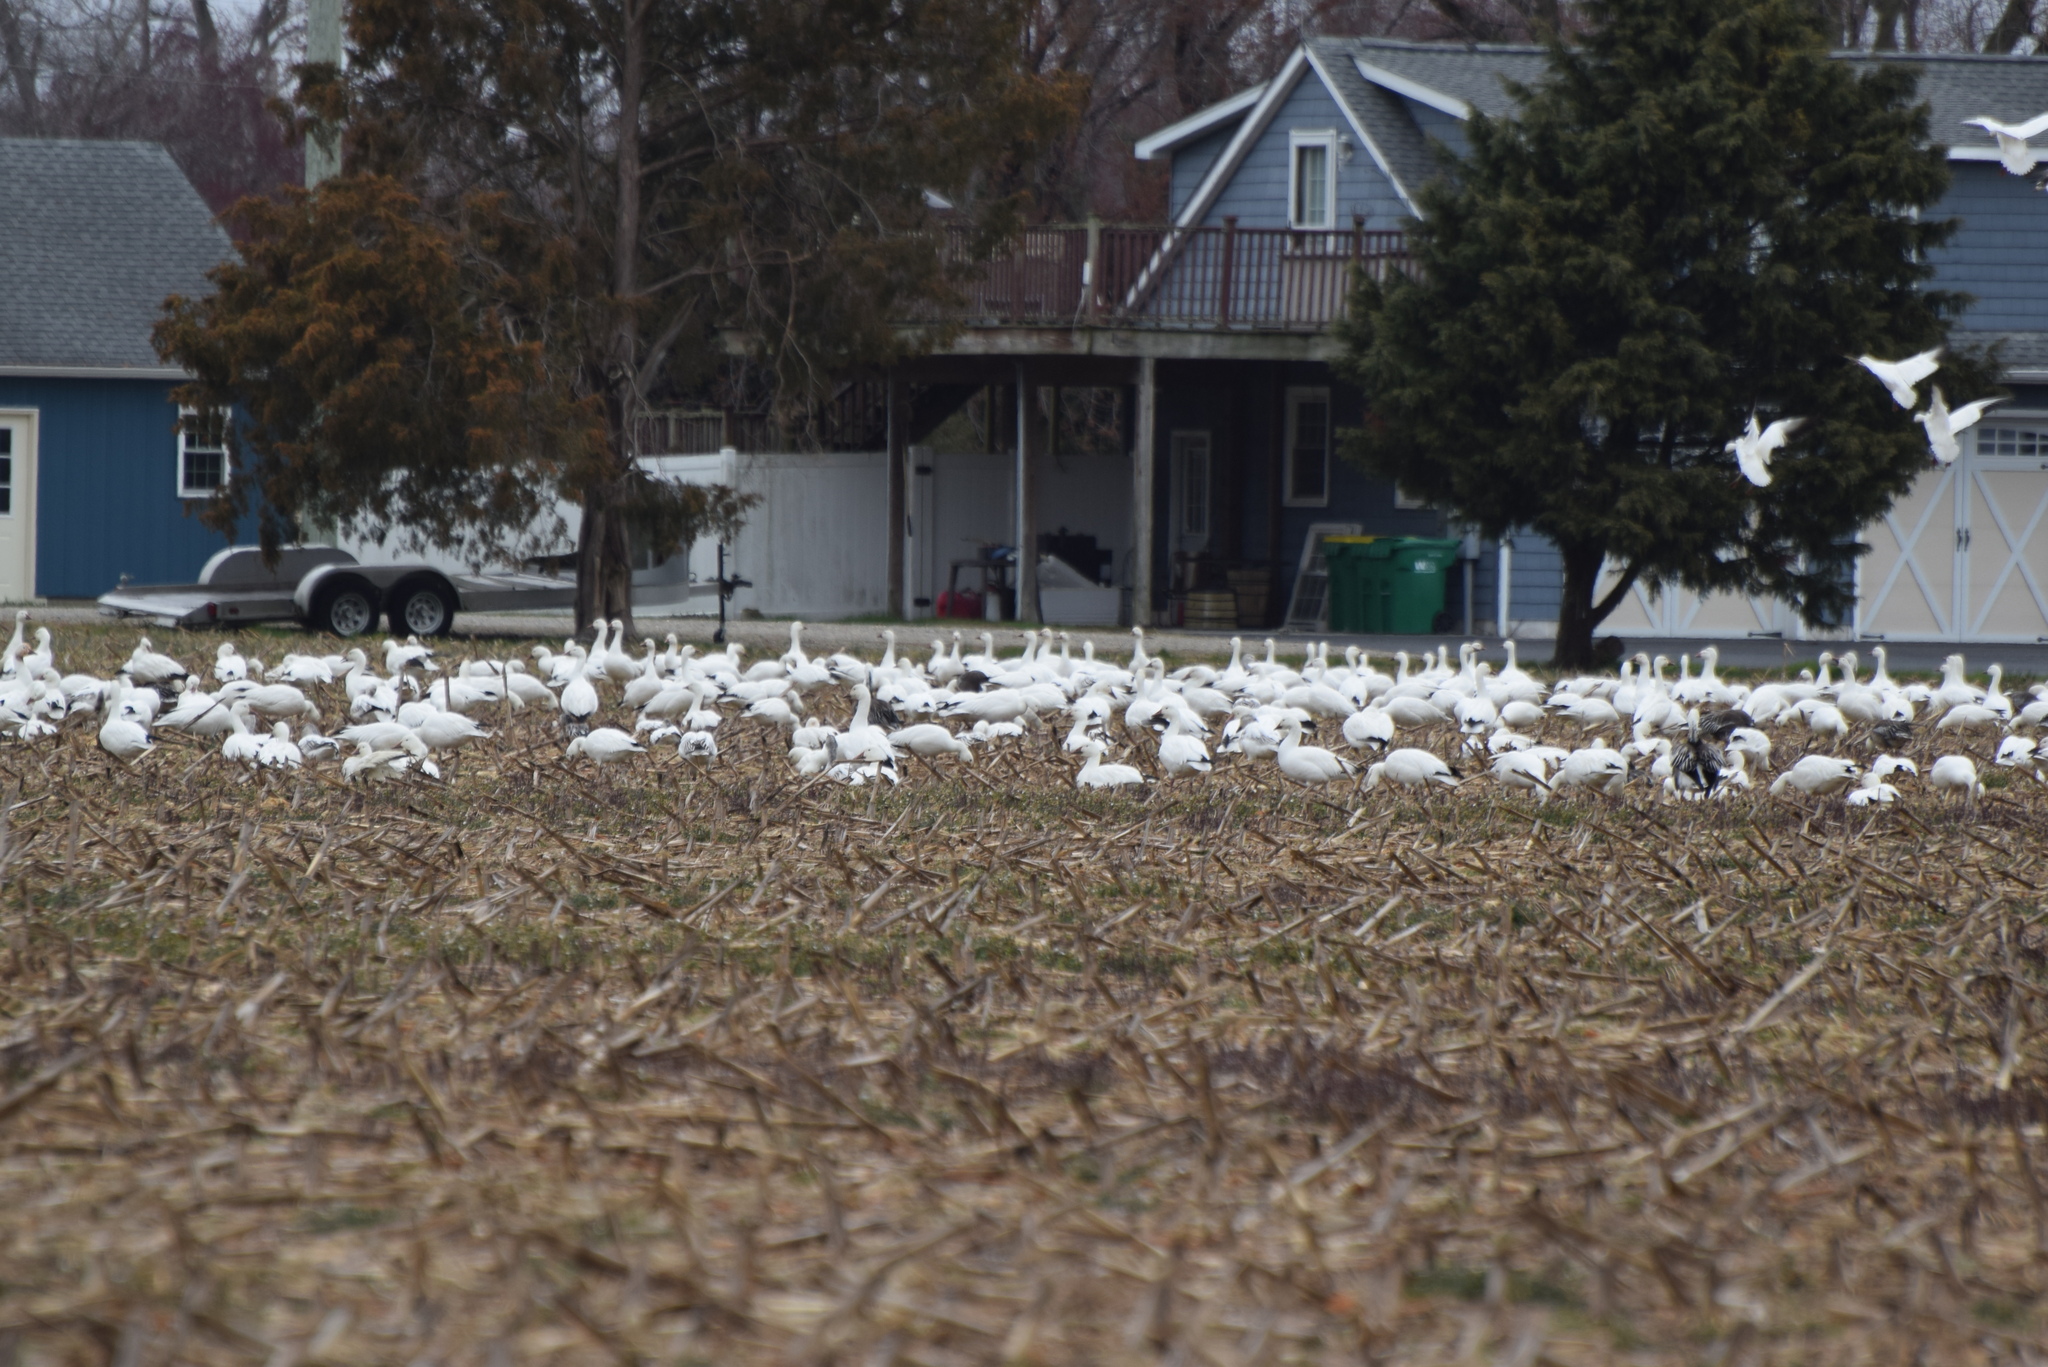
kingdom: Animalia
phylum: Chordata
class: Aves
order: Anseriformes
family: Anatidae
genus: Anser
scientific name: Anser caerulescens
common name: Snow goose
